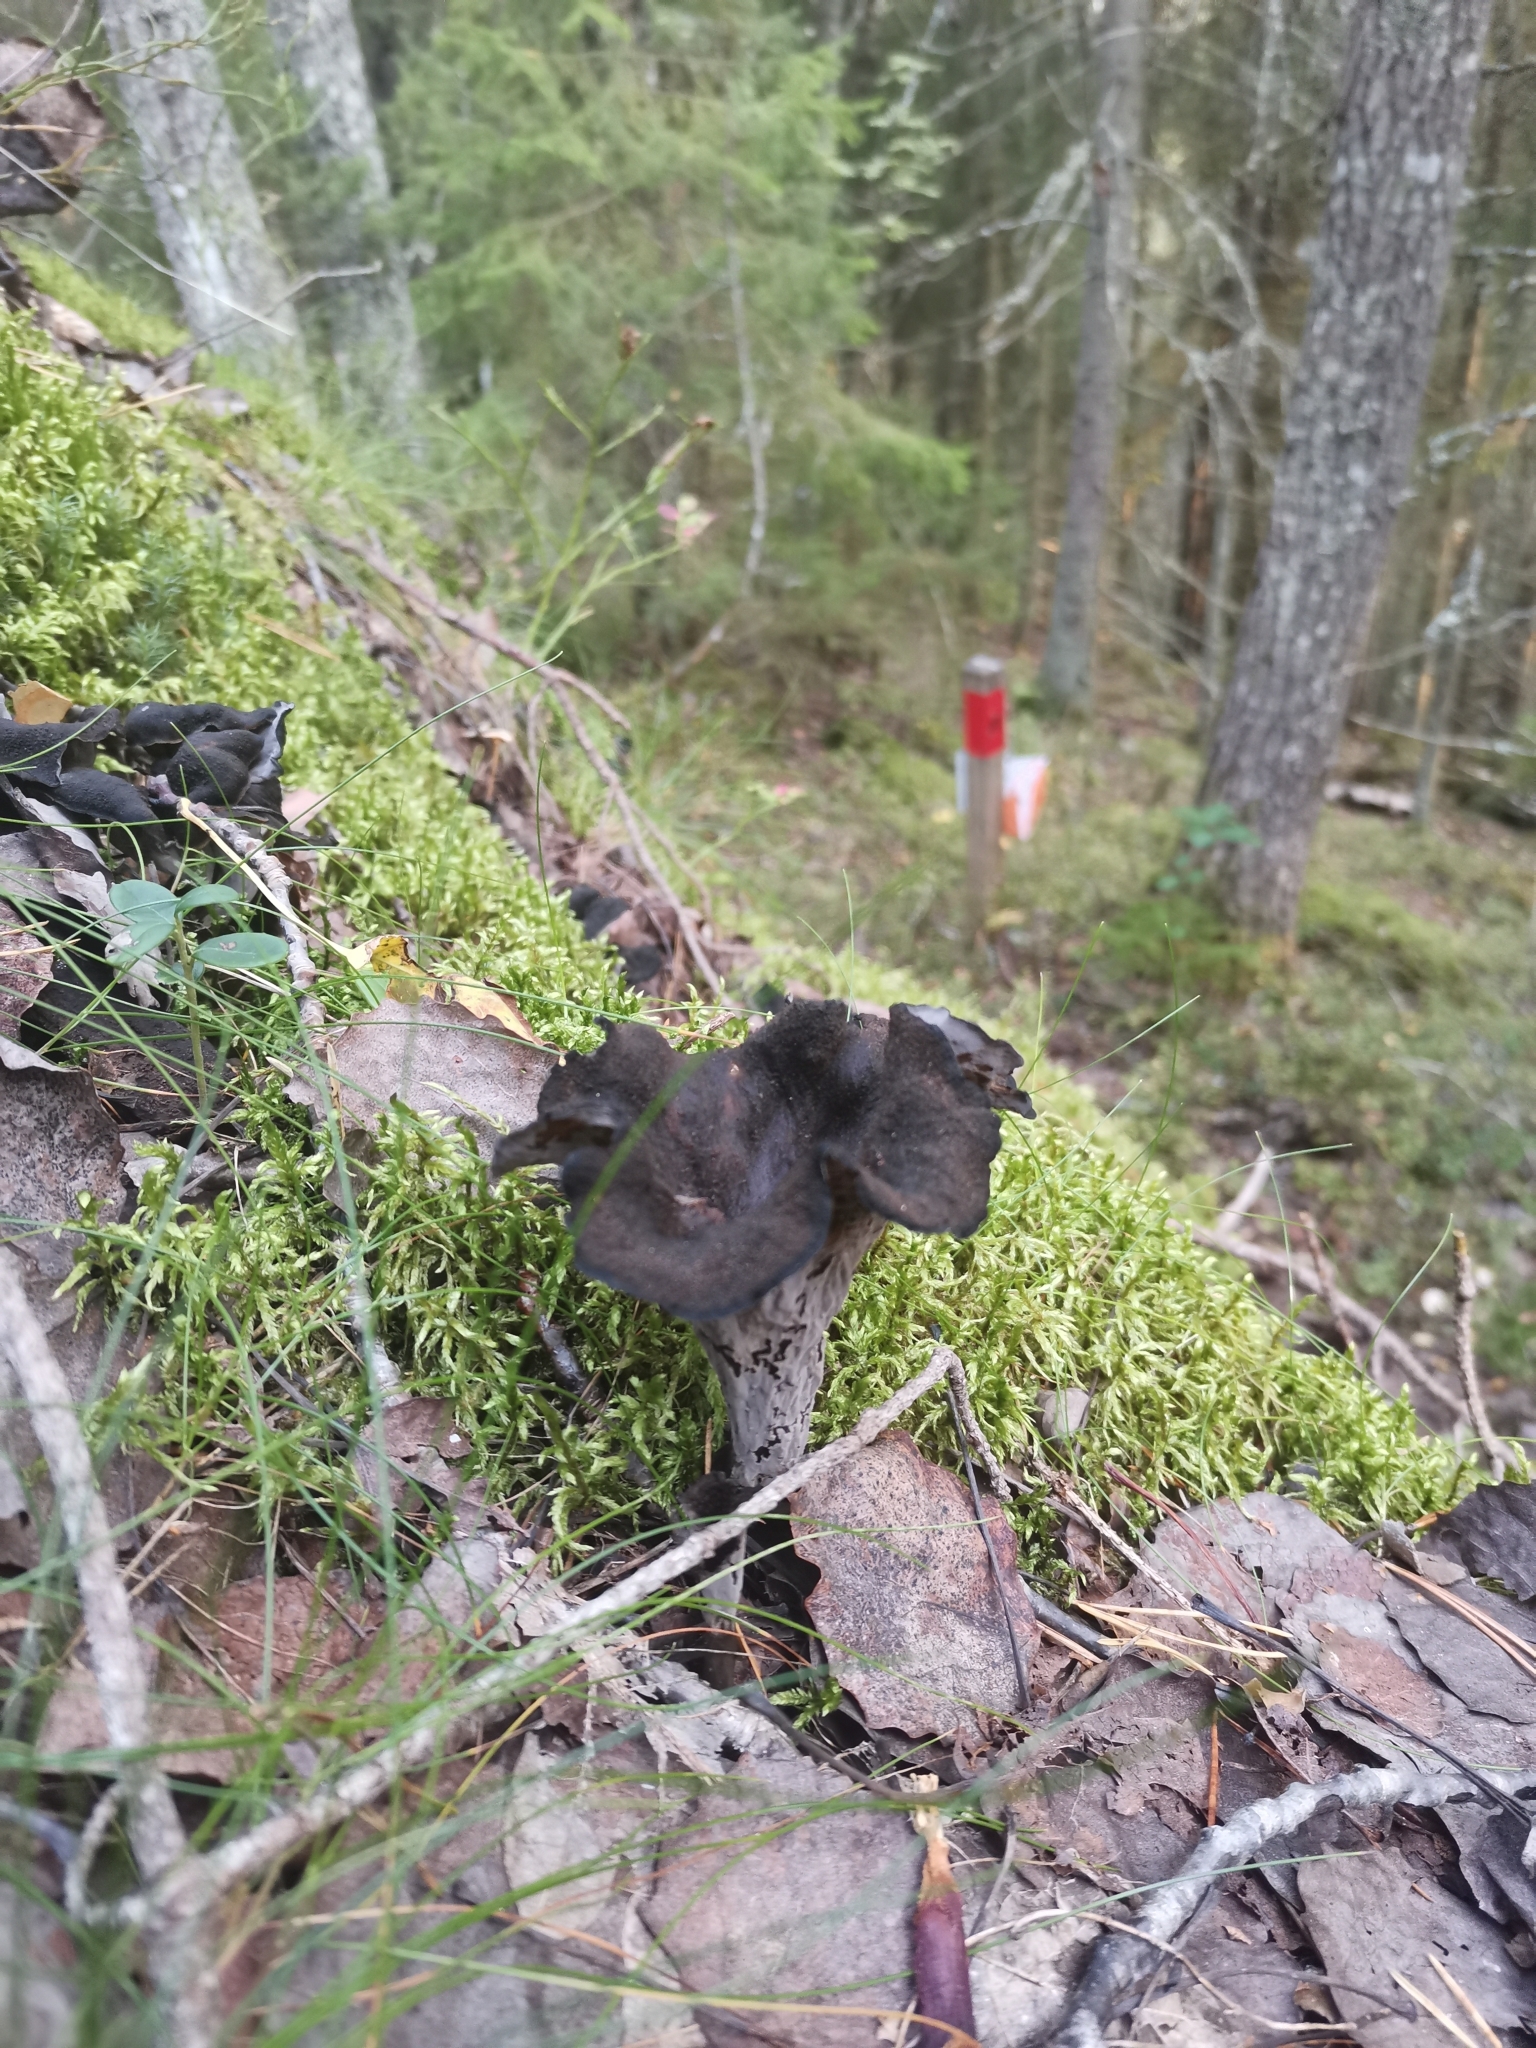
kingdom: Fungi
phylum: Basidiomycota
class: Agaricomycetes
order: Cantharellales
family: Hydnaceae
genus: Craterellus
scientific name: Craterellus cornucopioides
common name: Horn of plenty
